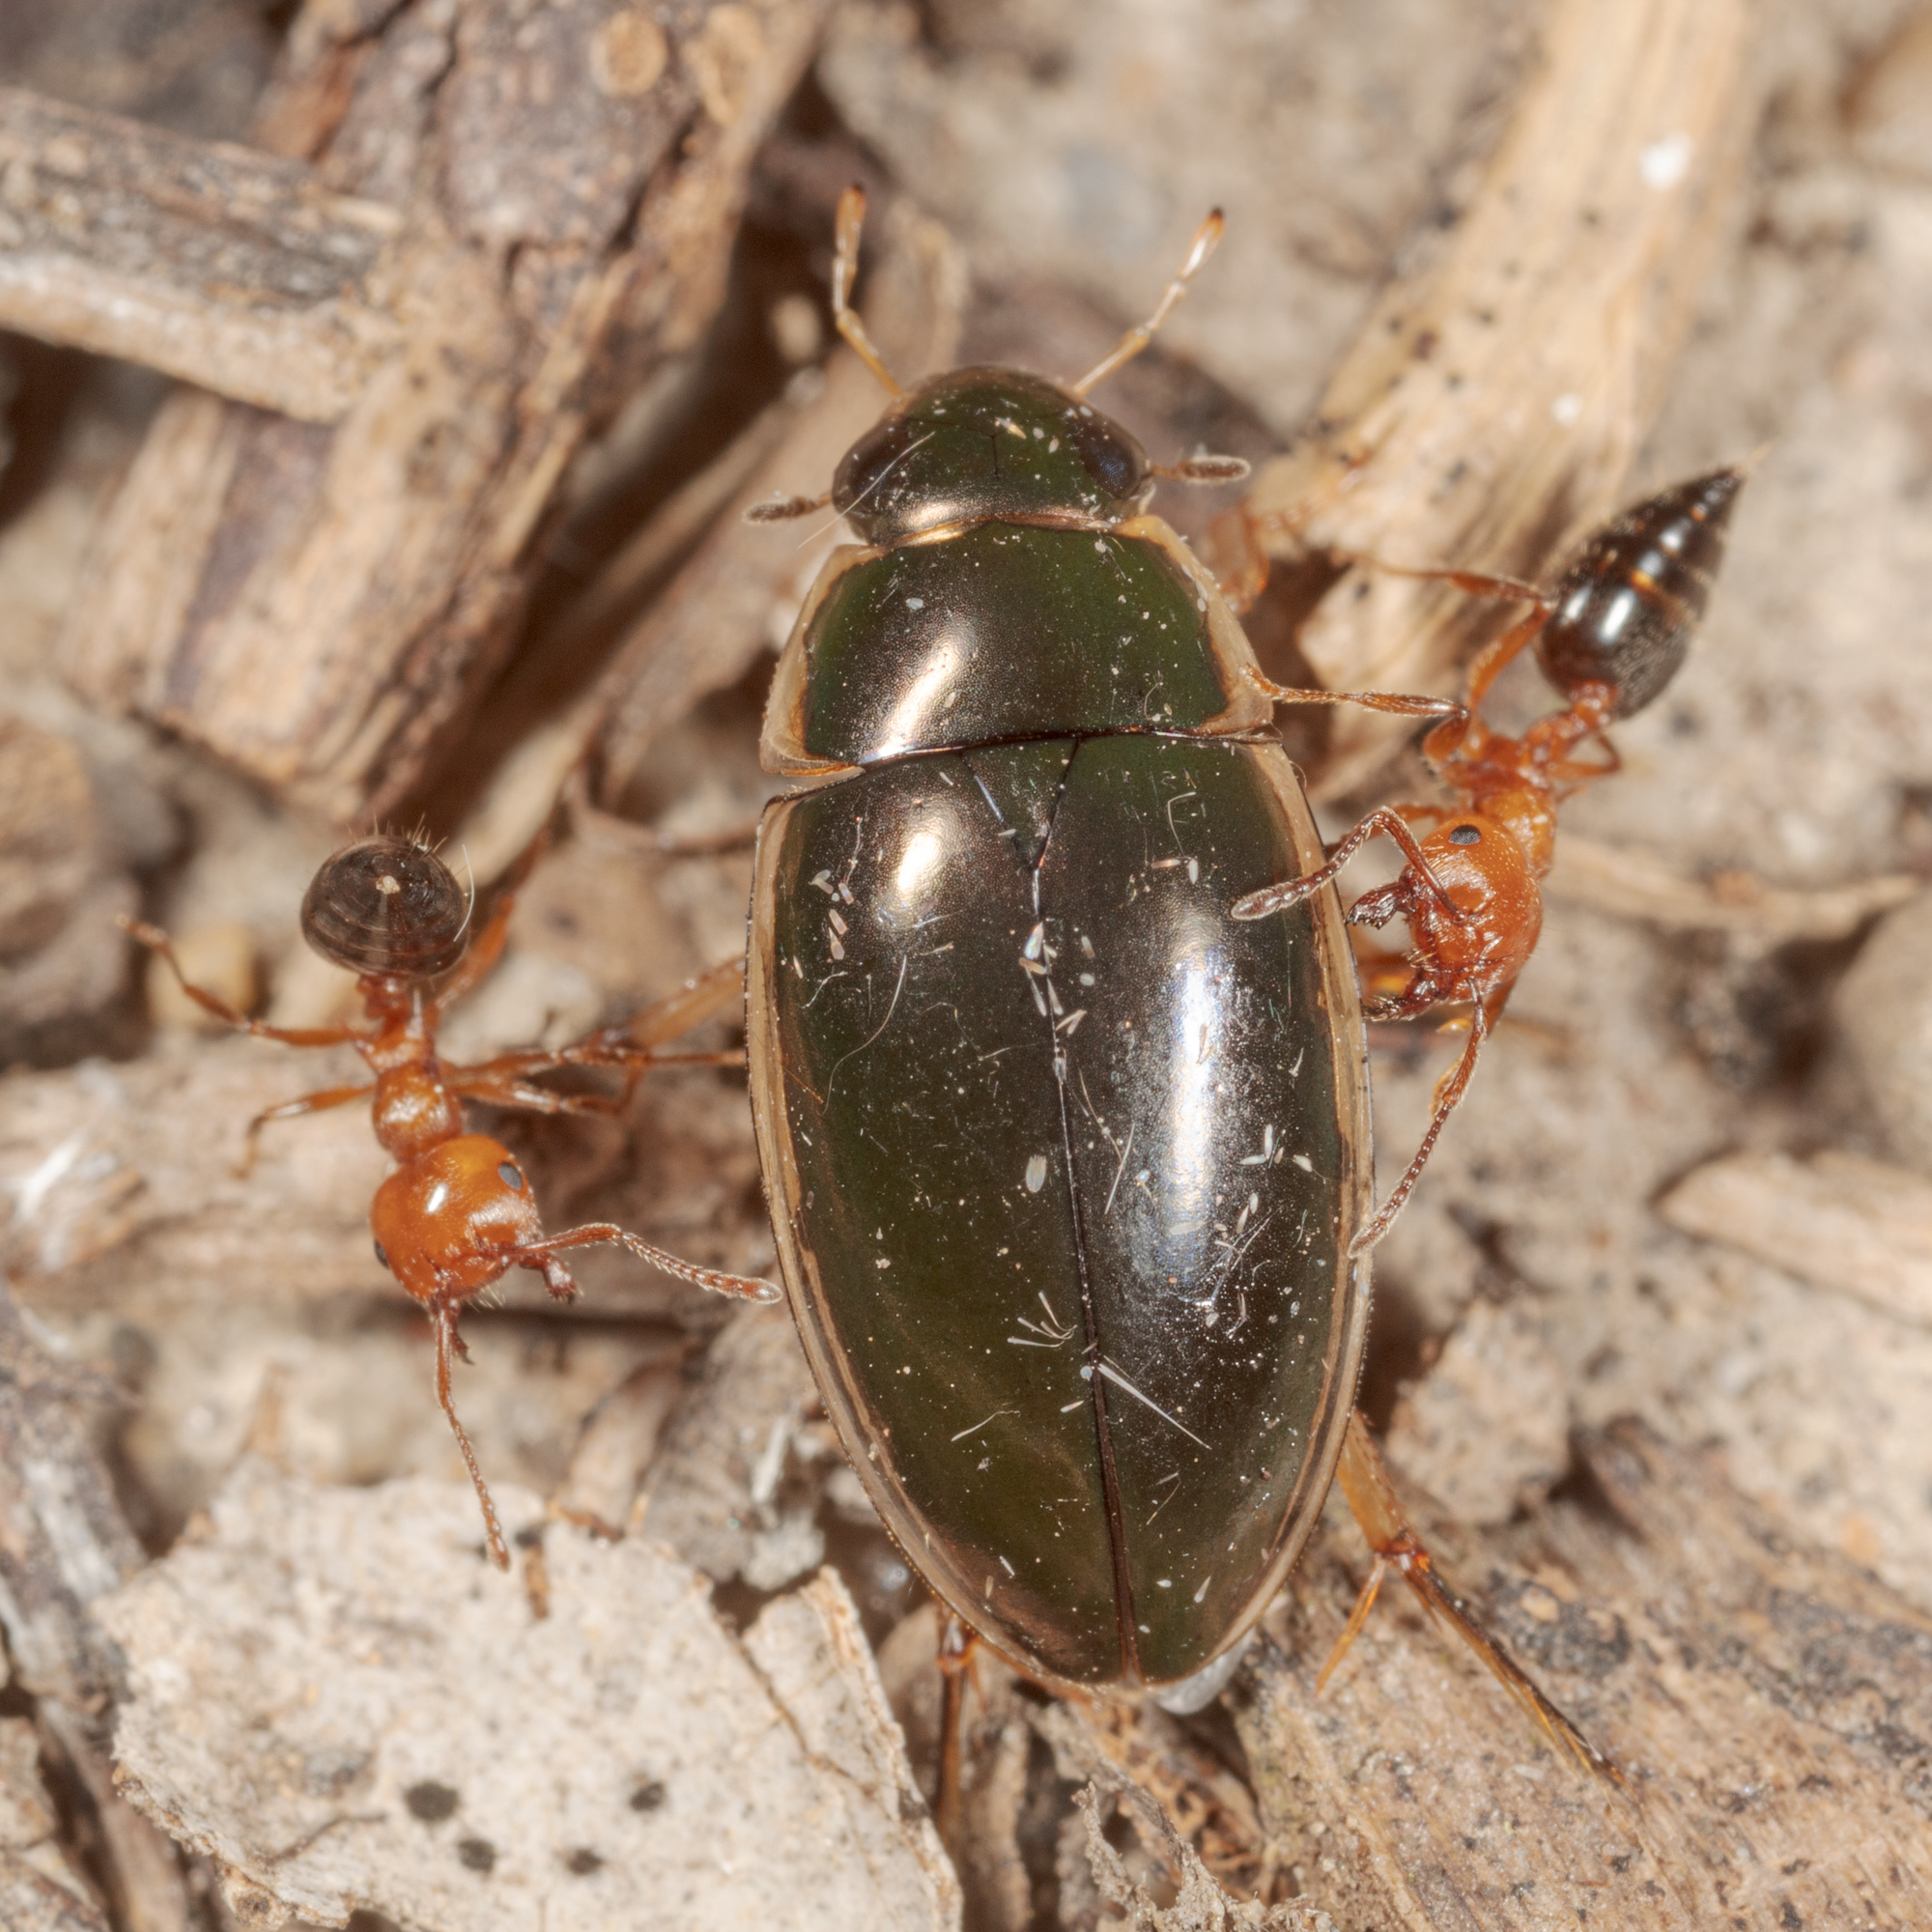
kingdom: Animalia
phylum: Arthropoda
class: Insecta
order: Coleoptera
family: Hydrophilidae
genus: Tropisternus
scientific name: Tropisternus lateralis
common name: Lateral-banded water scavenger beetle
